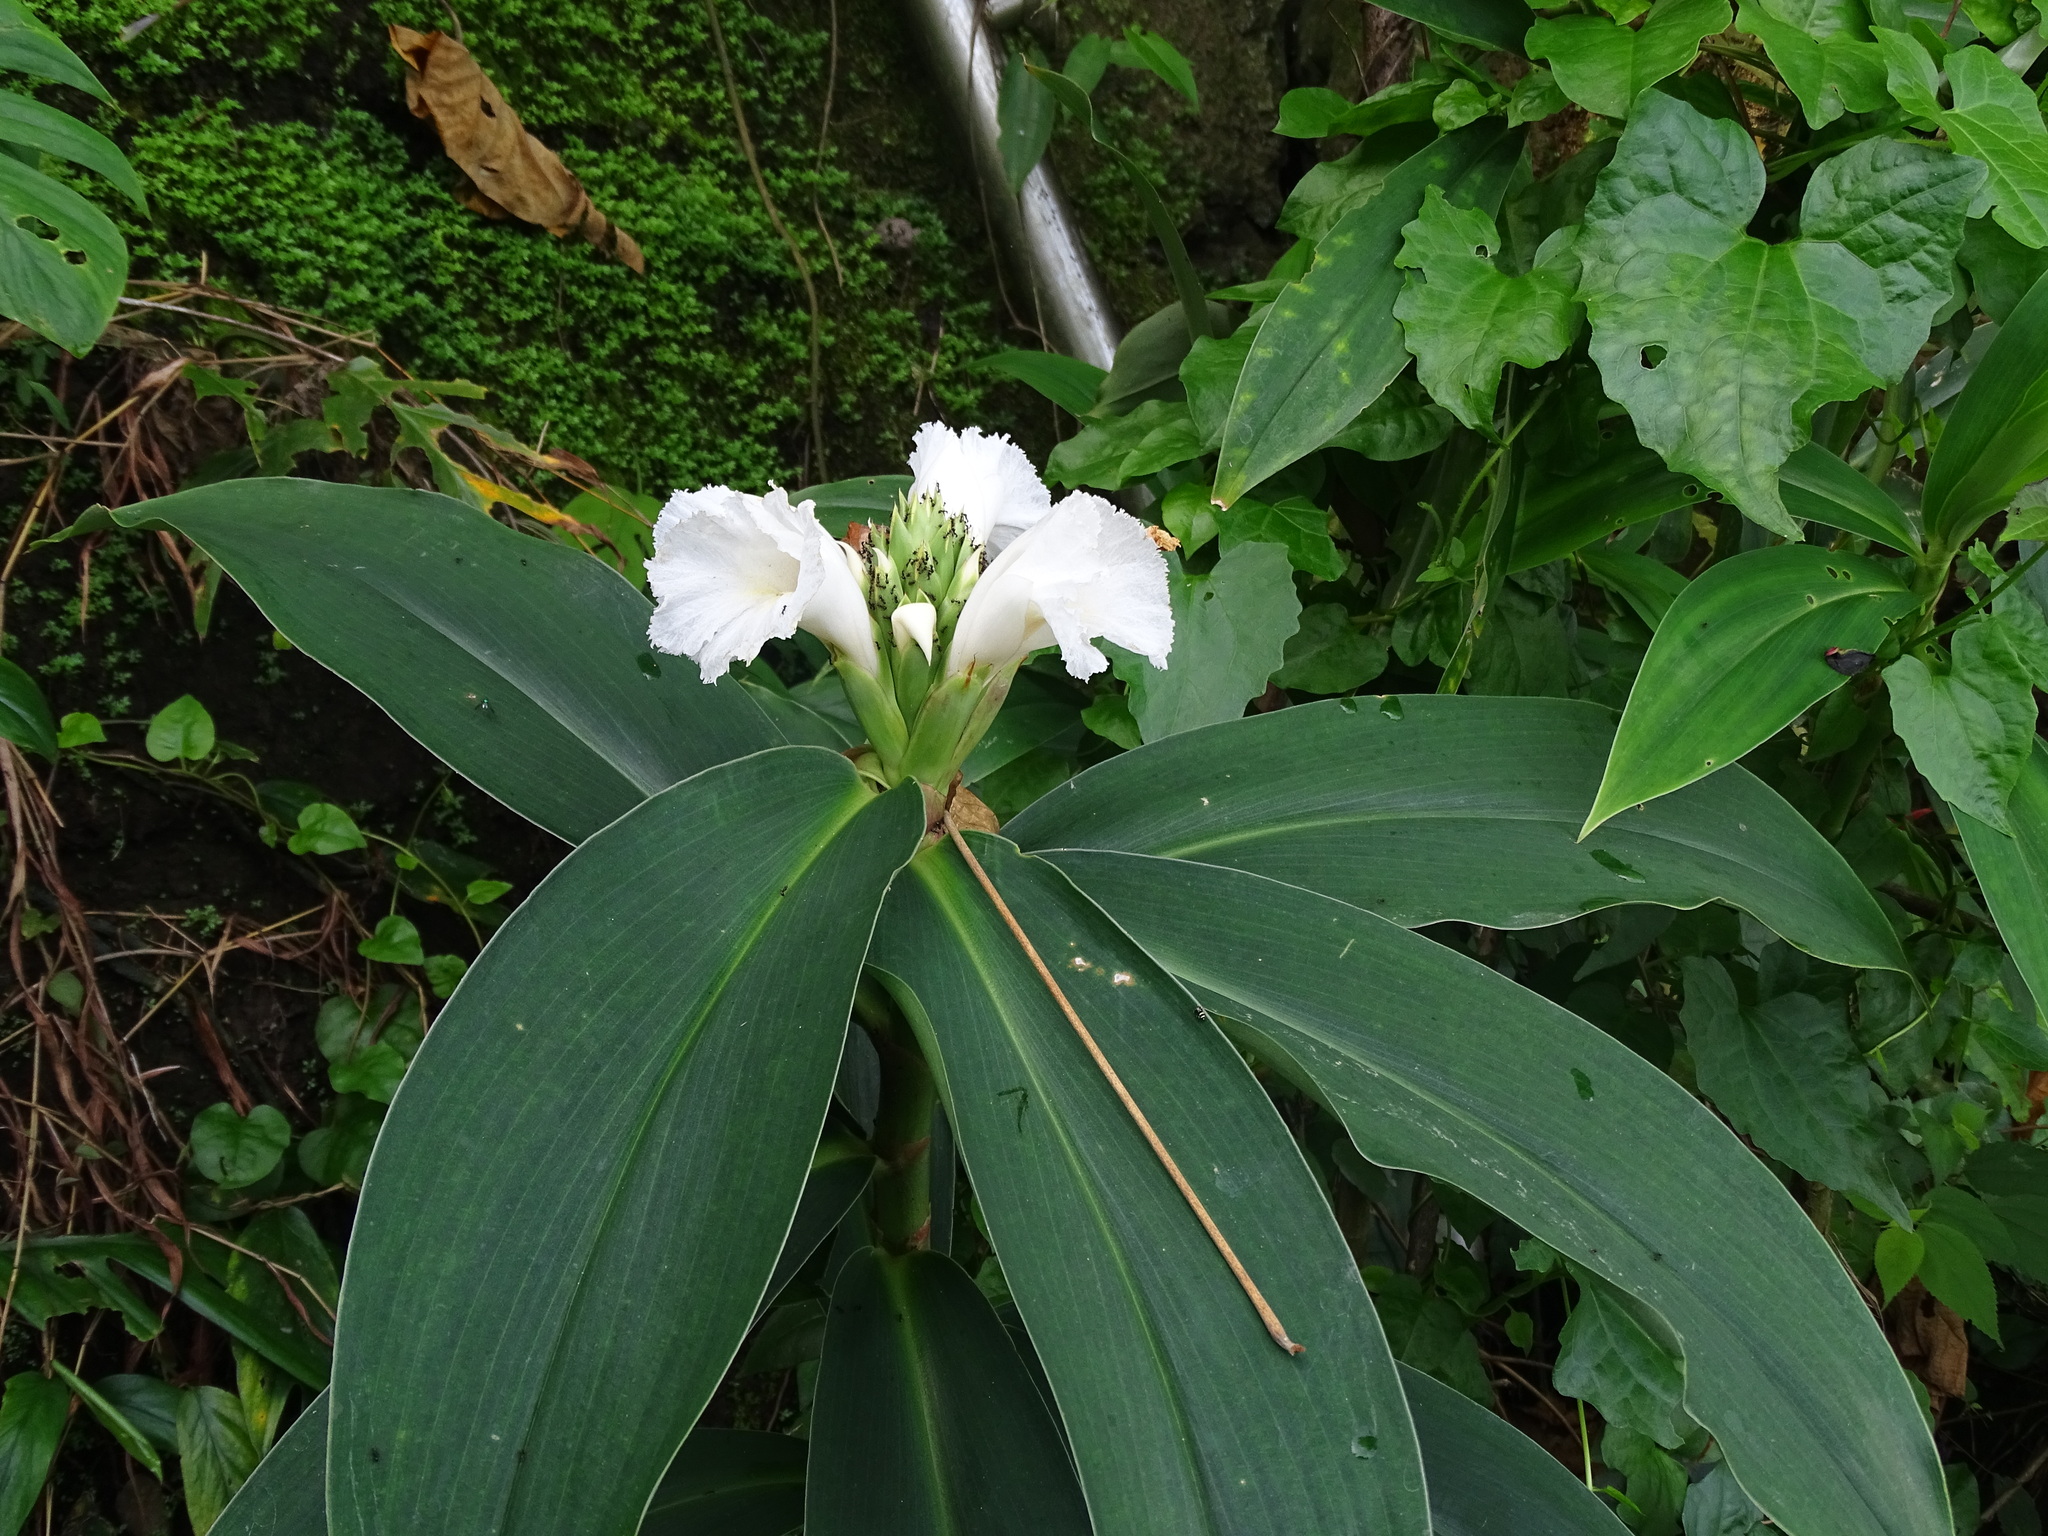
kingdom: Plantae
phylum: Tracheophyta
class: Liliopsida
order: Zingiberales
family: Costaceae
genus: Hellenia
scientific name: Hellenia speciosa
